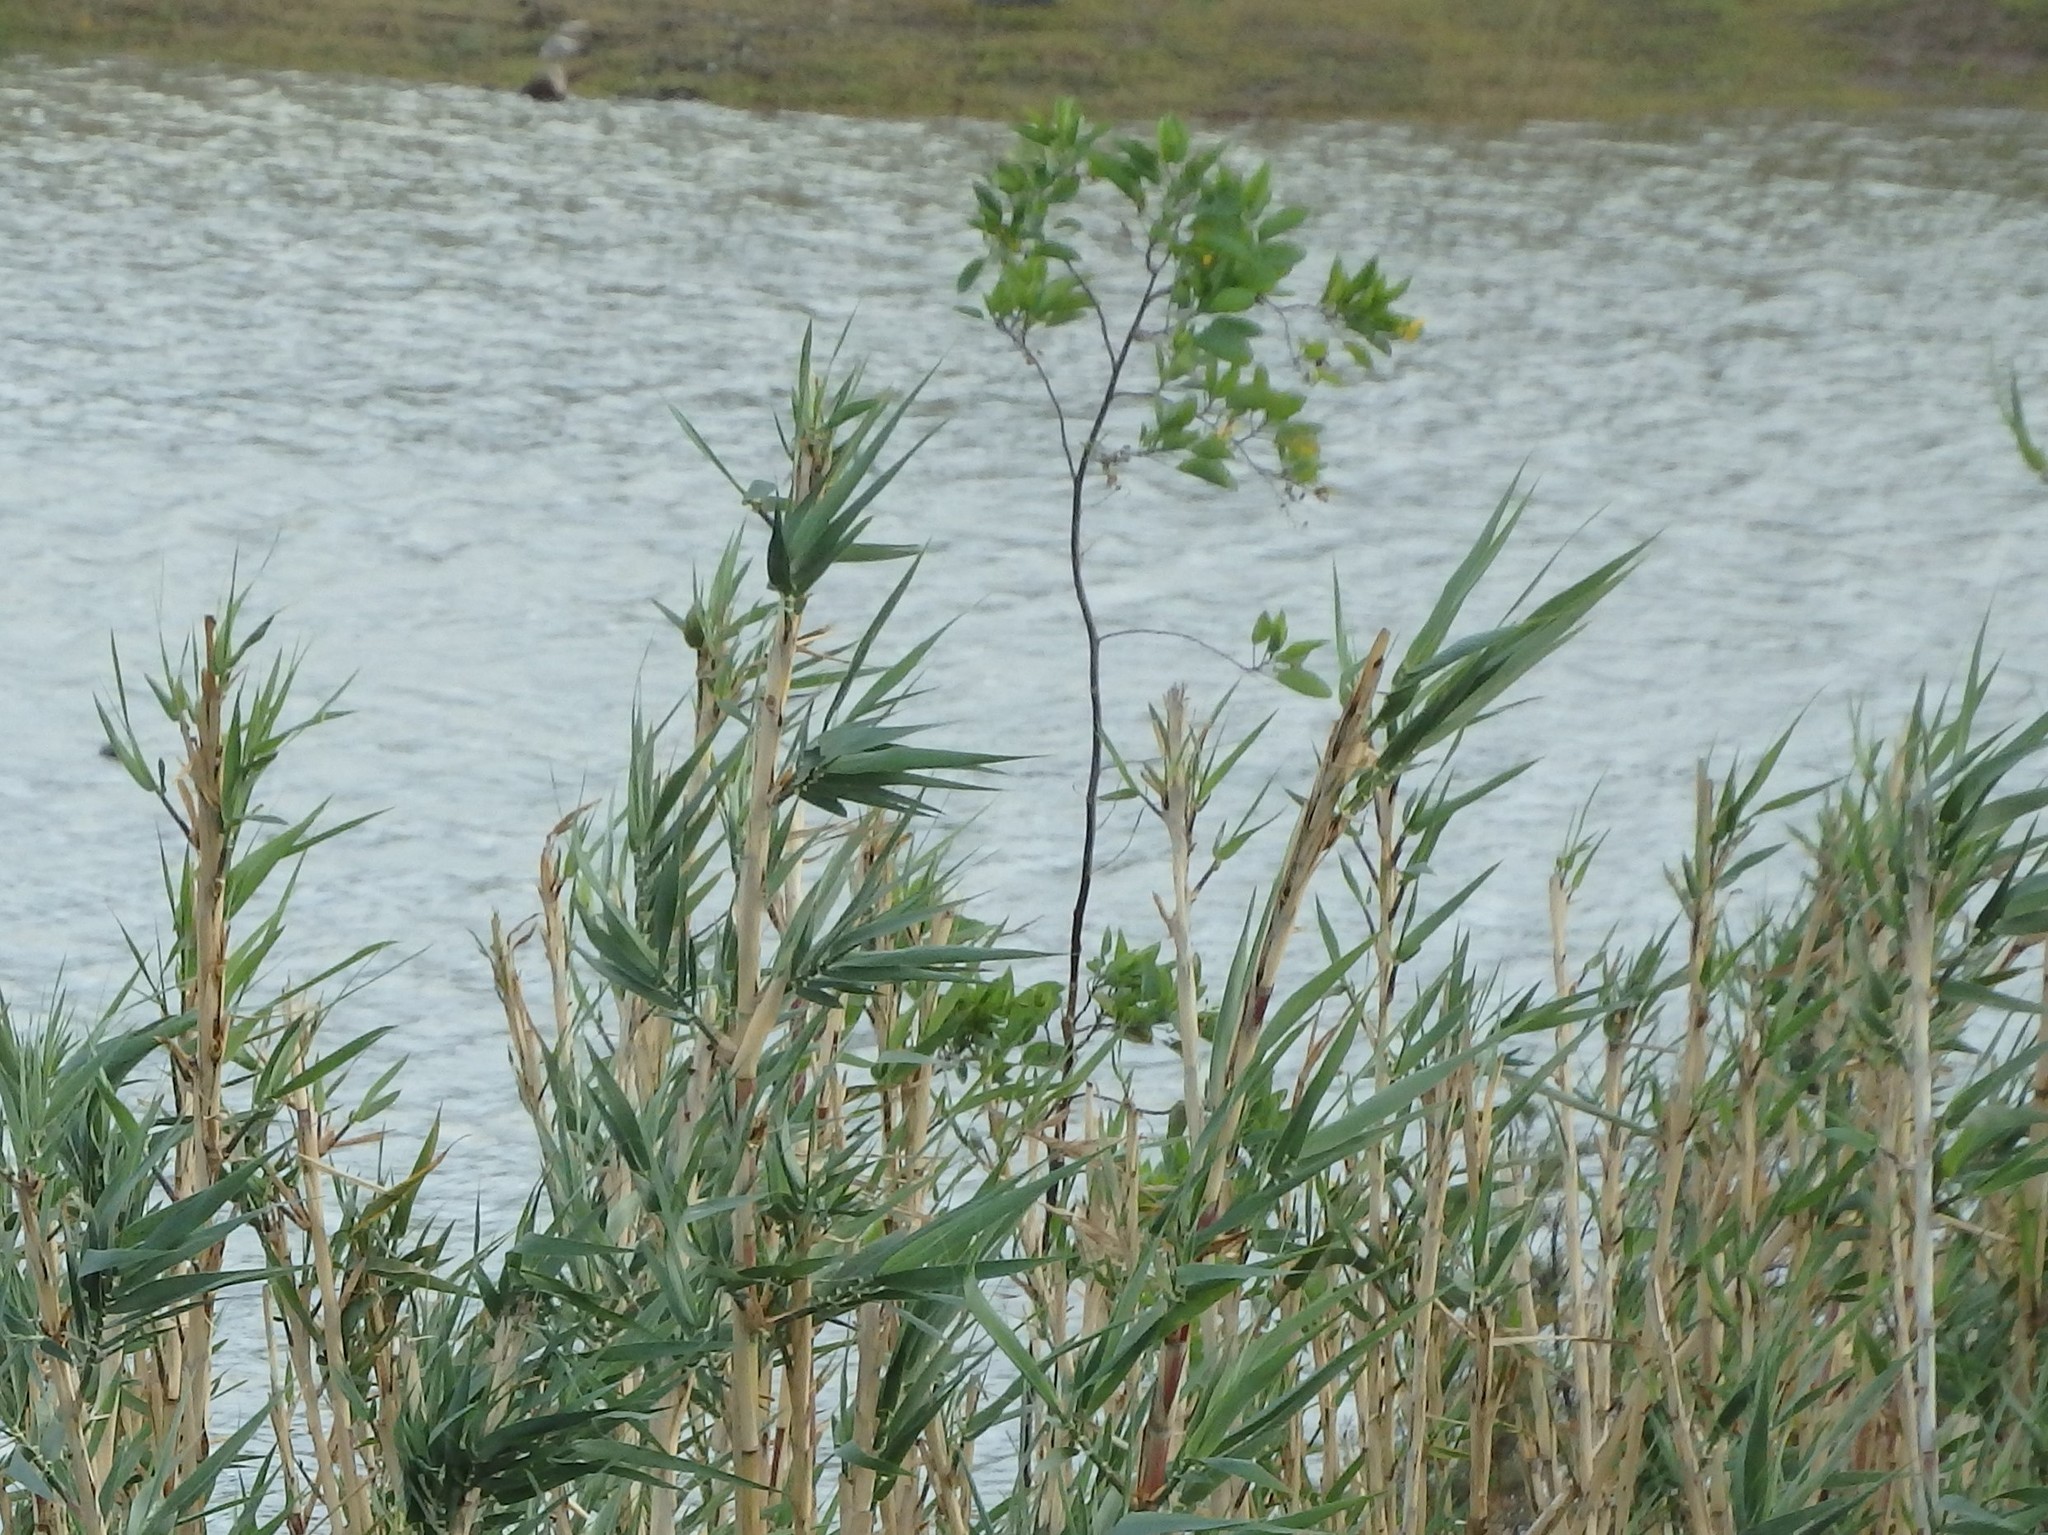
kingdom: Plantae
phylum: Tracheophyta
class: Magnoliopsida
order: Solanales
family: Solanaceae
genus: Nicotiana
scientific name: Nicotiana glauca
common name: Tree tobacco
